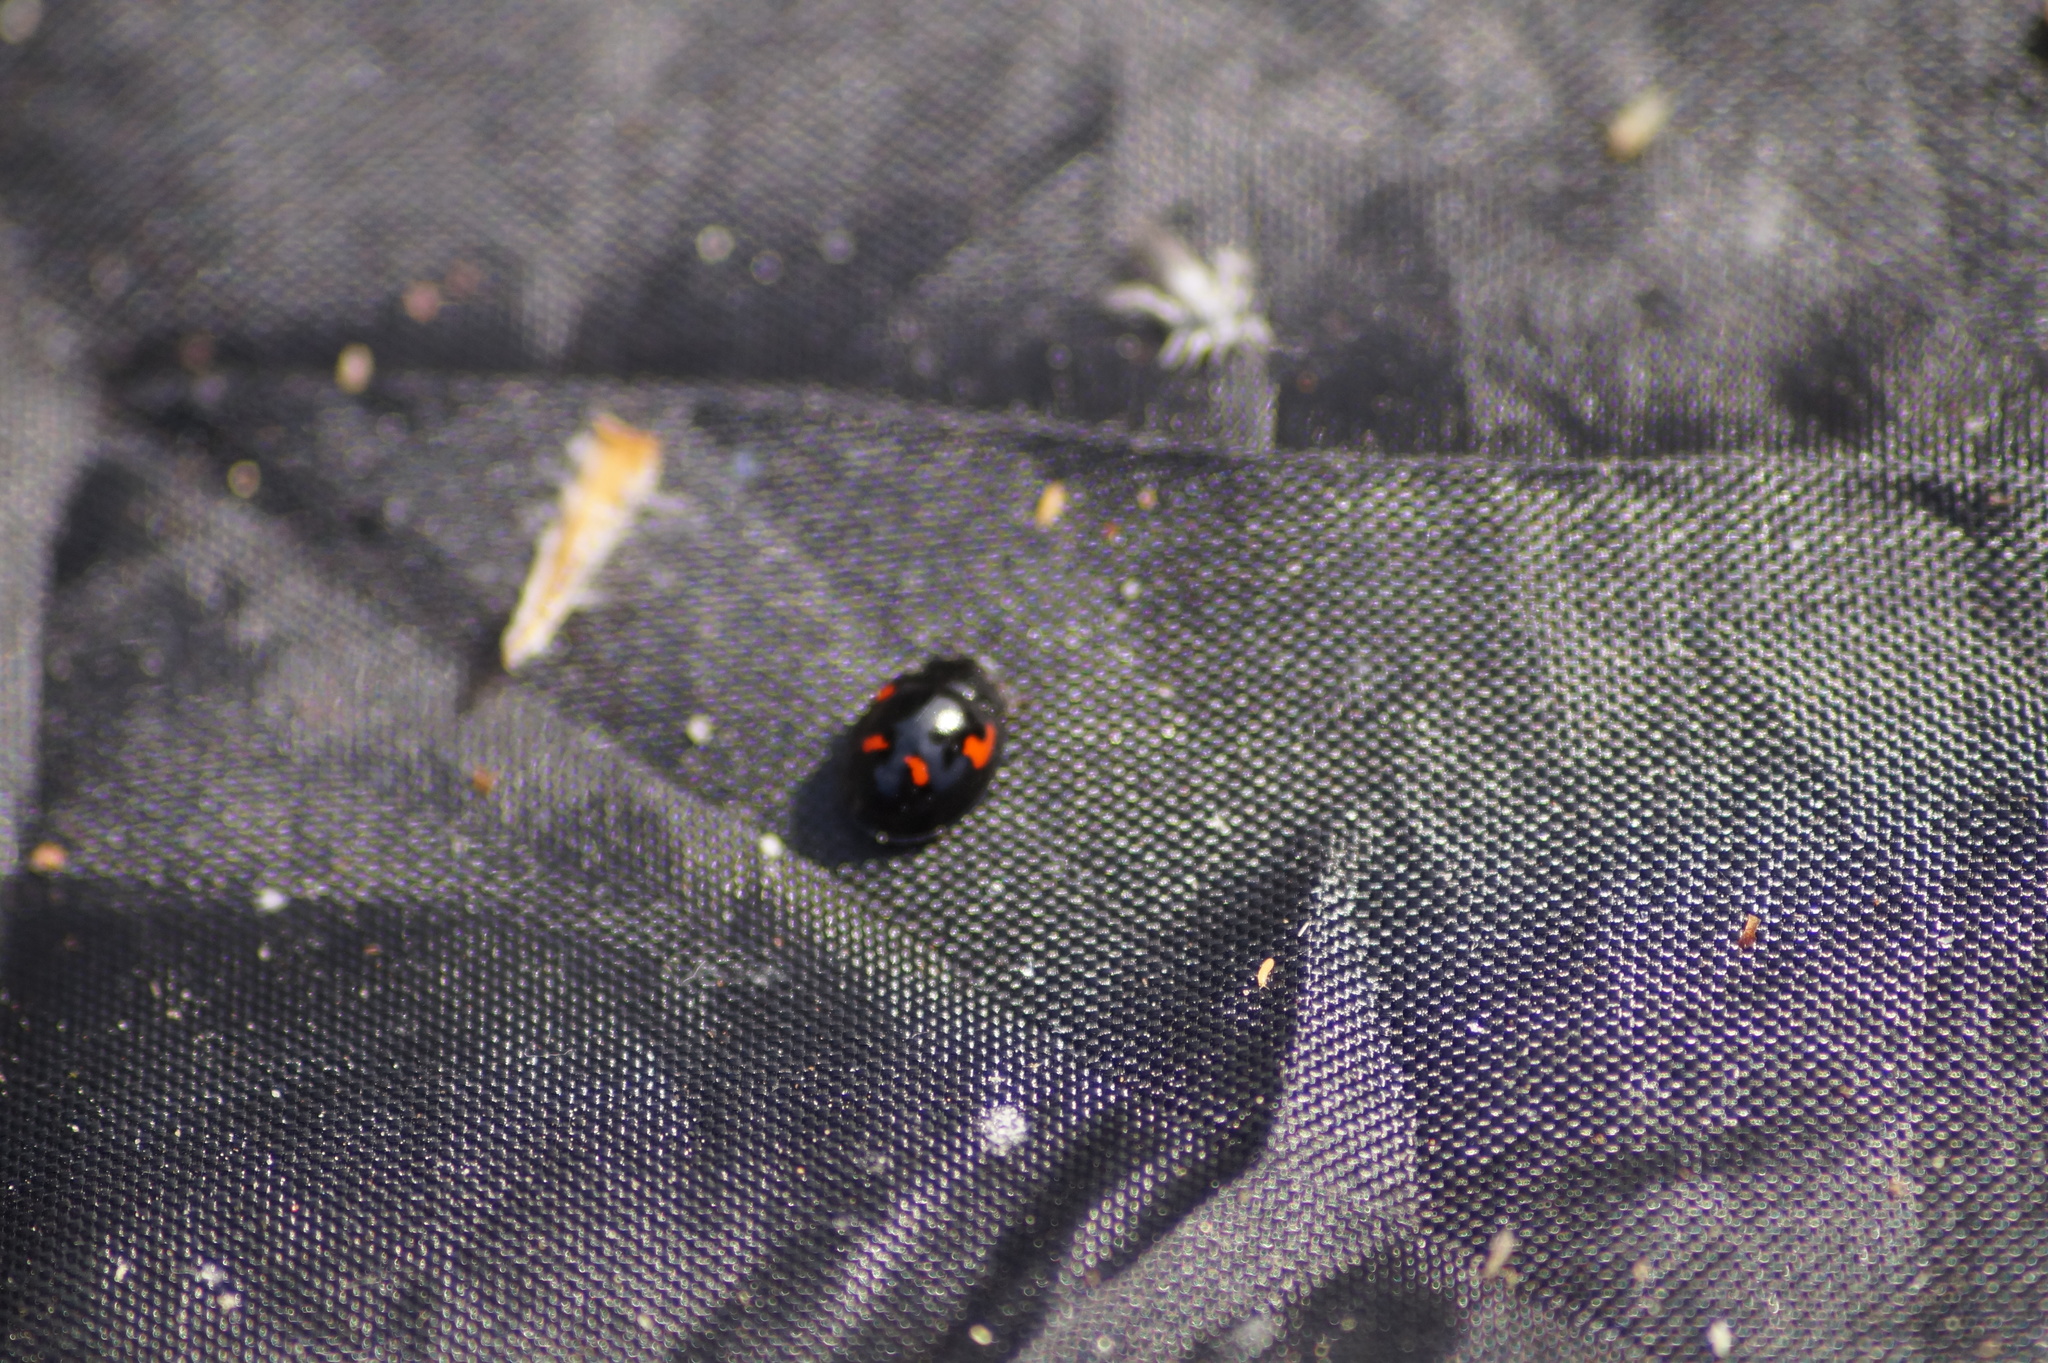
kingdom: Animalia
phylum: Arthropoda
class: Insecta
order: Coleoptera
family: Coccinellidae
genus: Brumus
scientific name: Brumus quadripustulatus
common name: Ladybird beetle
